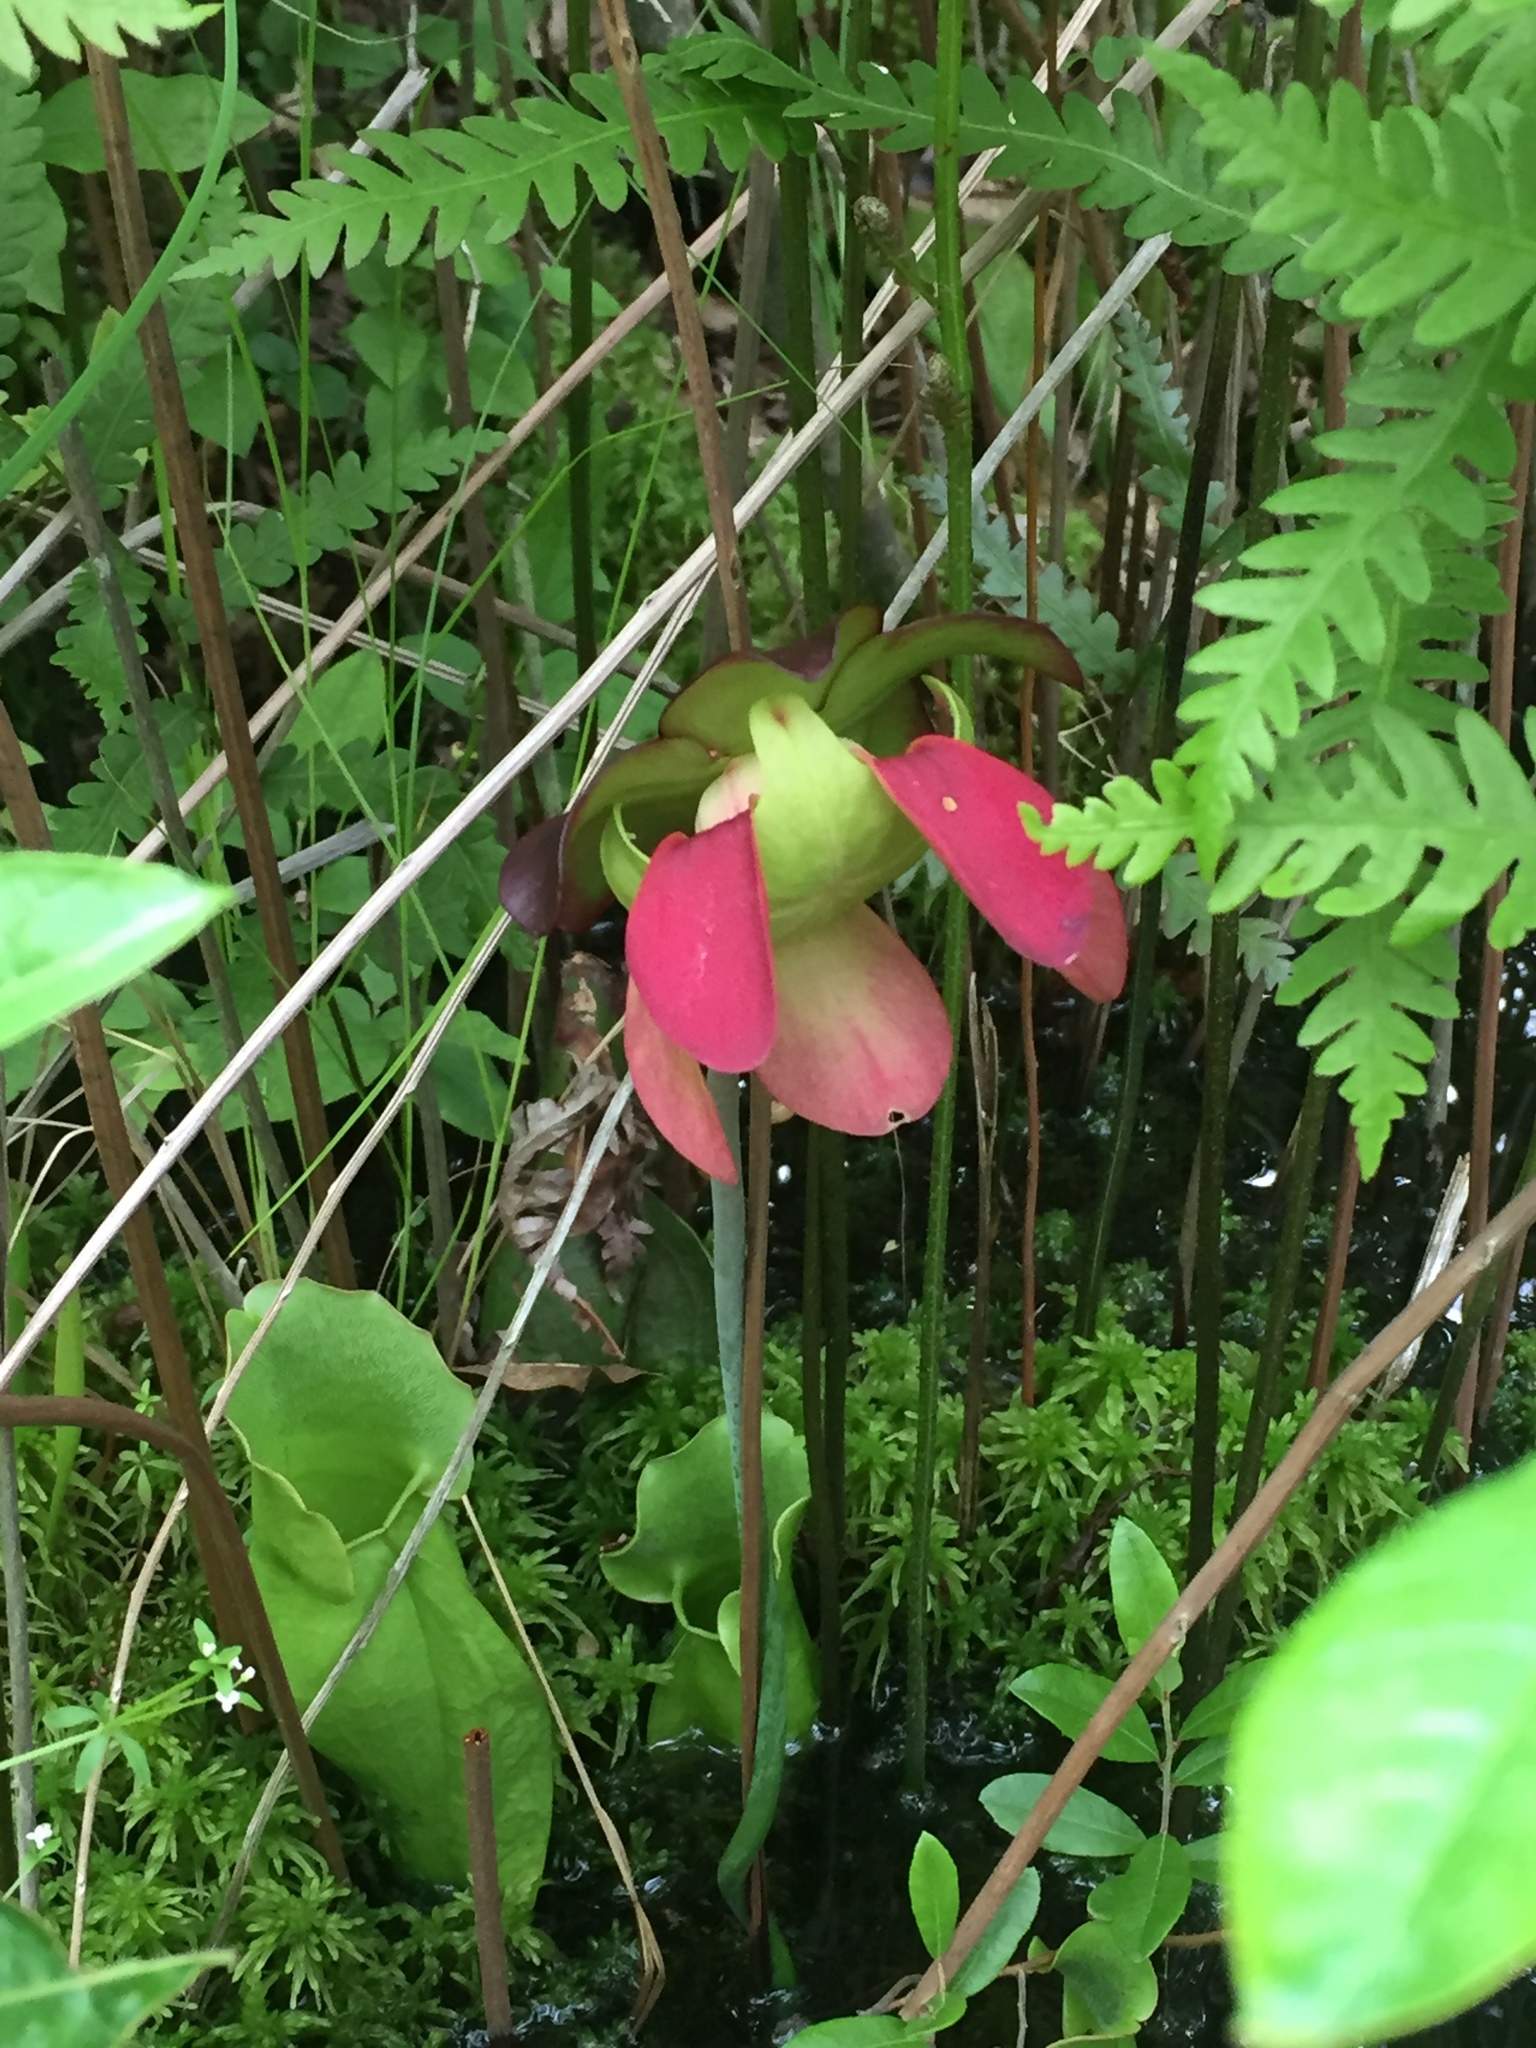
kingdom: Plantae
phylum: Tracheophyta
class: Magnoliopsida
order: Ericales
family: Sarraceniaceae
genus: Sarracenia
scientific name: Sarracenia purpurea
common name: Pitcherplant
